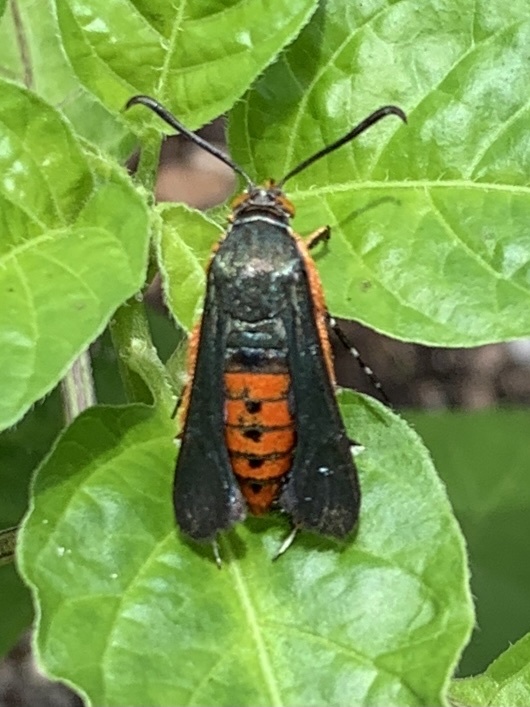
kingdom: Animalia
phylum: Arthropoda
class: Insecta
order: Lepidoptera
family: Sesiidae
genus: Eichlinia
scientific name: Eichlinia cucurbitae
